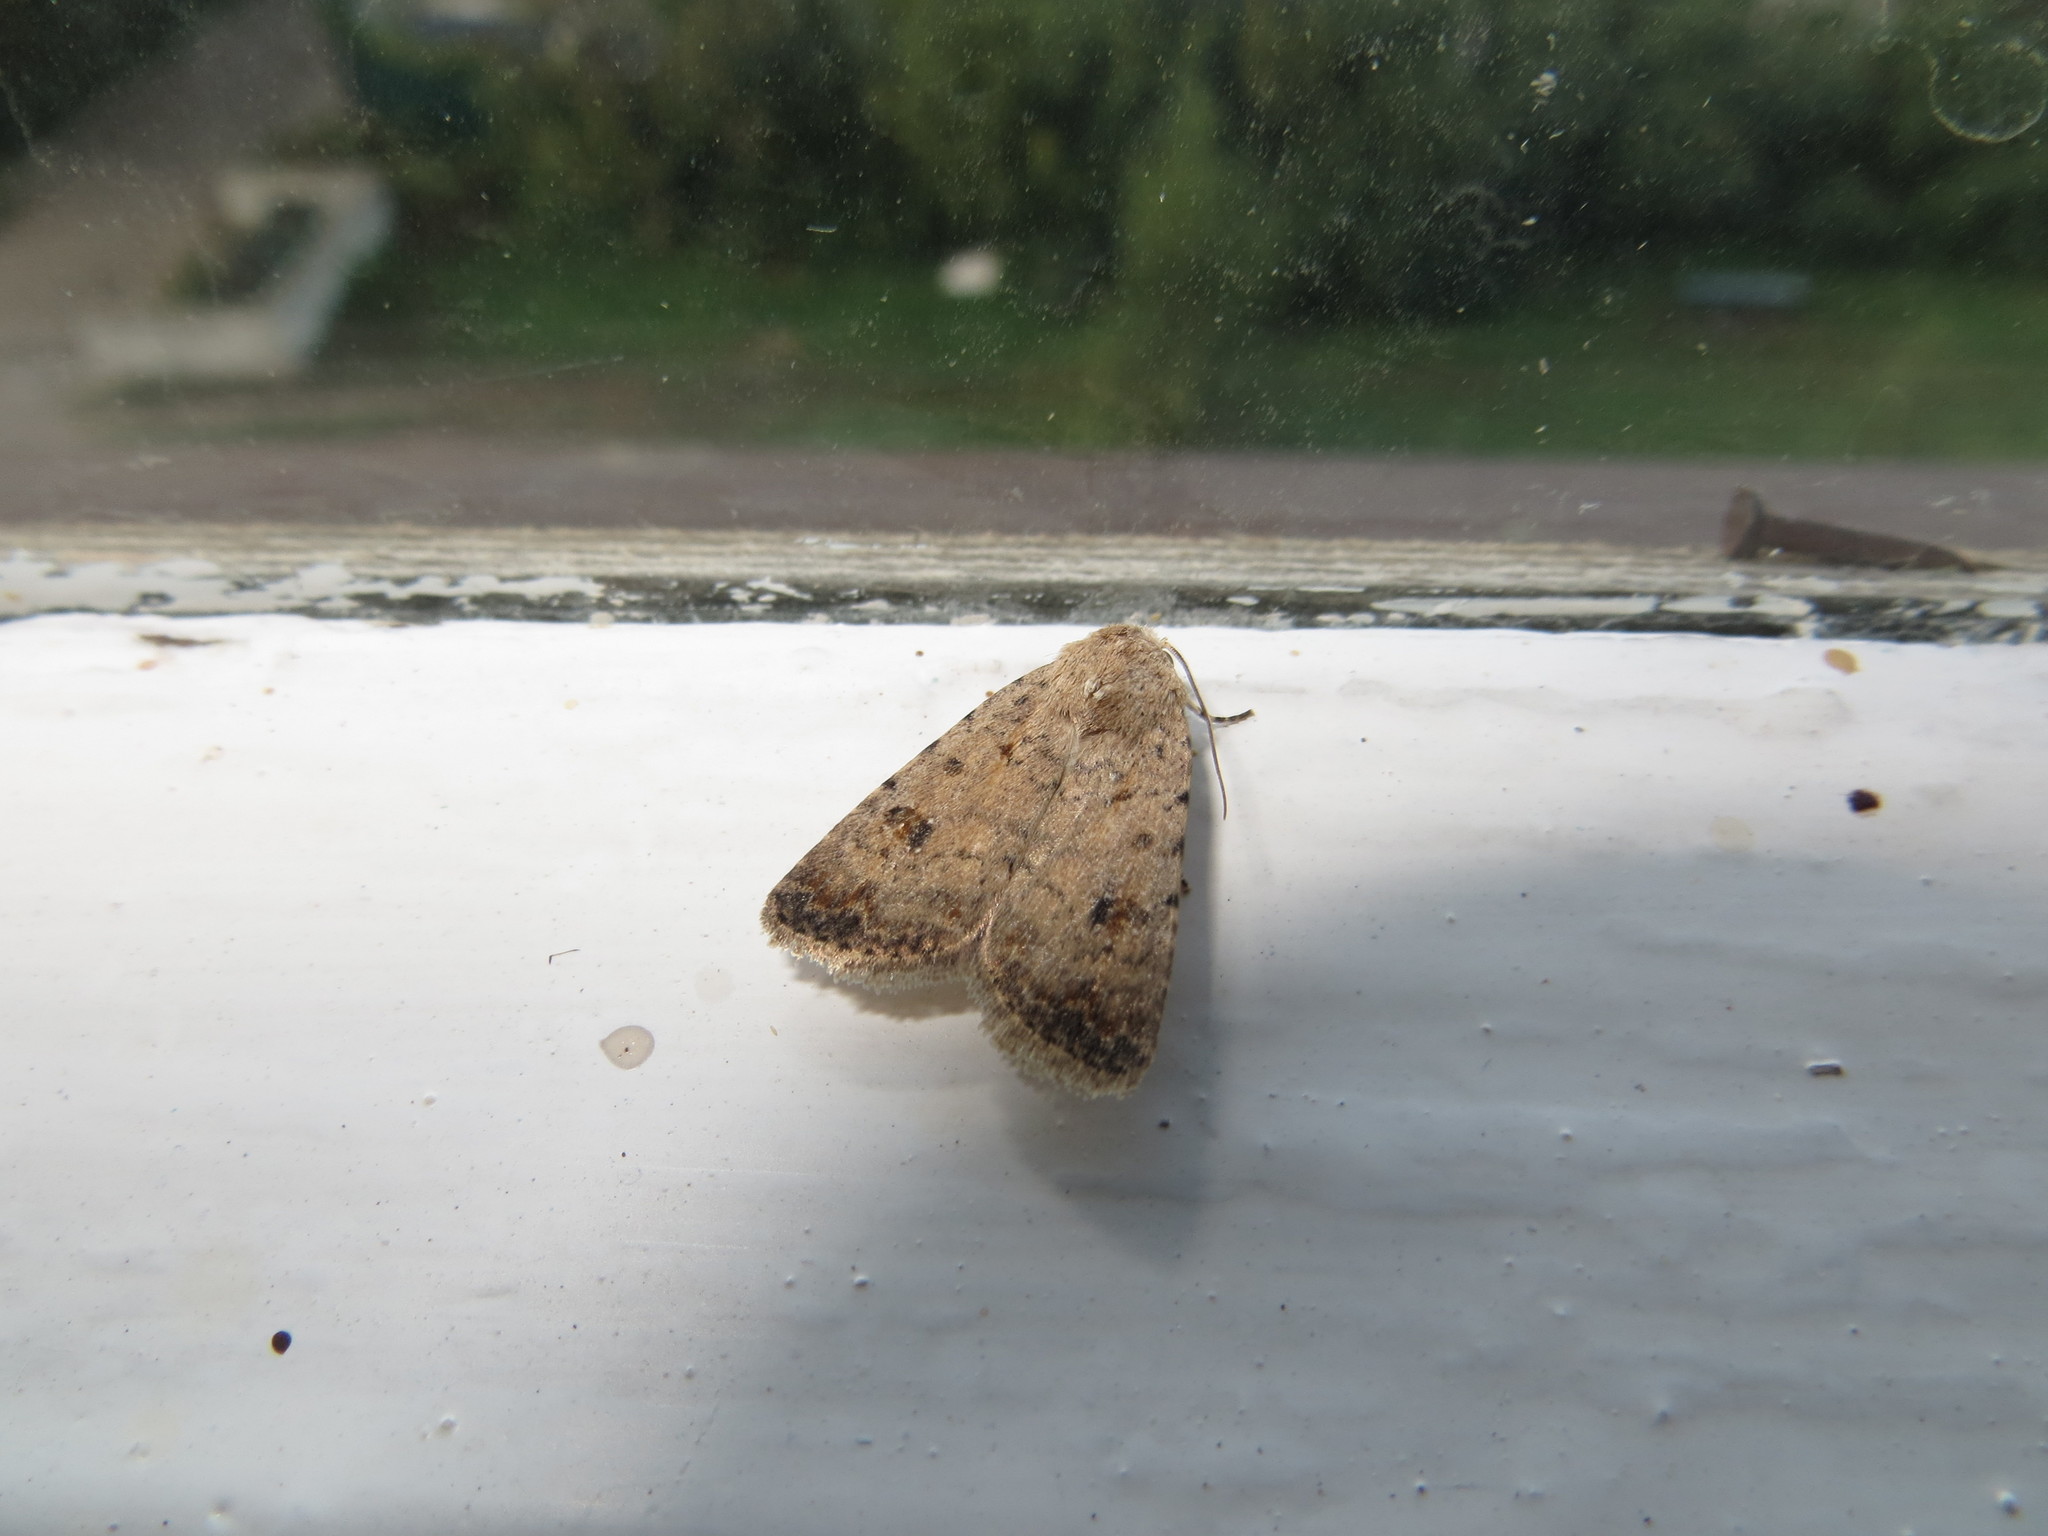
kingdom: Animalia
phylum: Arthropoda
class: Insecta
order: Lepidoptera
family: Noctuidae
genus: Caradrina
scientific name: Caradrina clavipalpis
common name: Pale mottled willow
